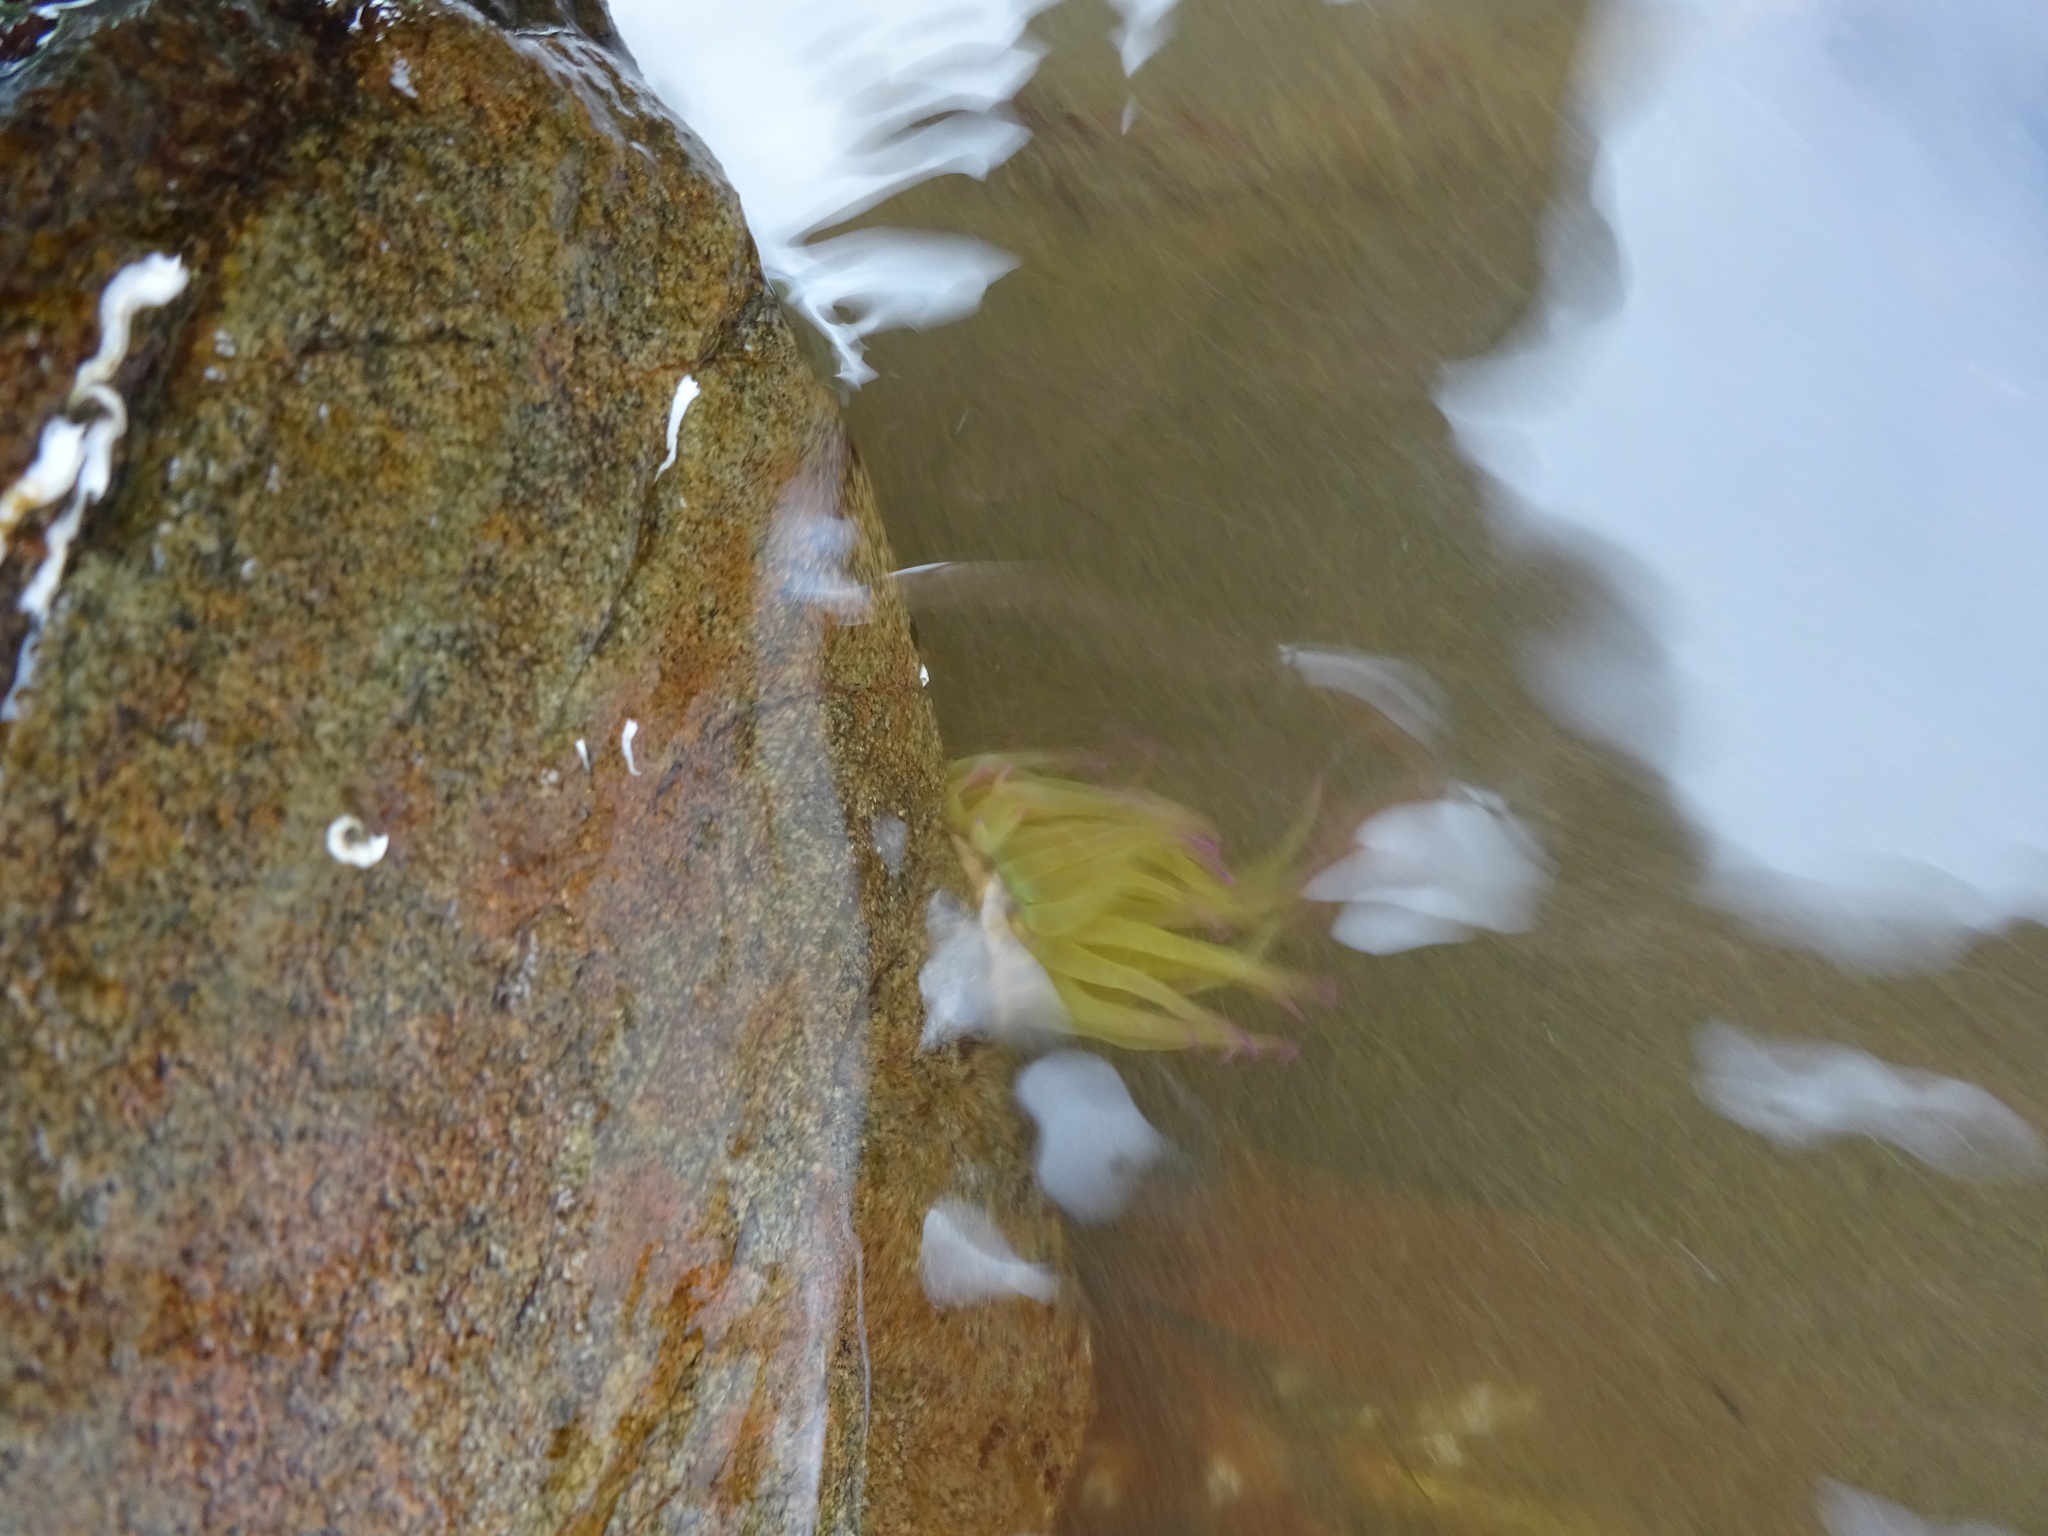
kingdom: Animalia
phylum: Cnidaria
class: Anthozoa
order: Actiniaria
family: Actiniidae
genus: Anemonia
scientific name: Anemonia viridis
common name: Snakelocks anemone
